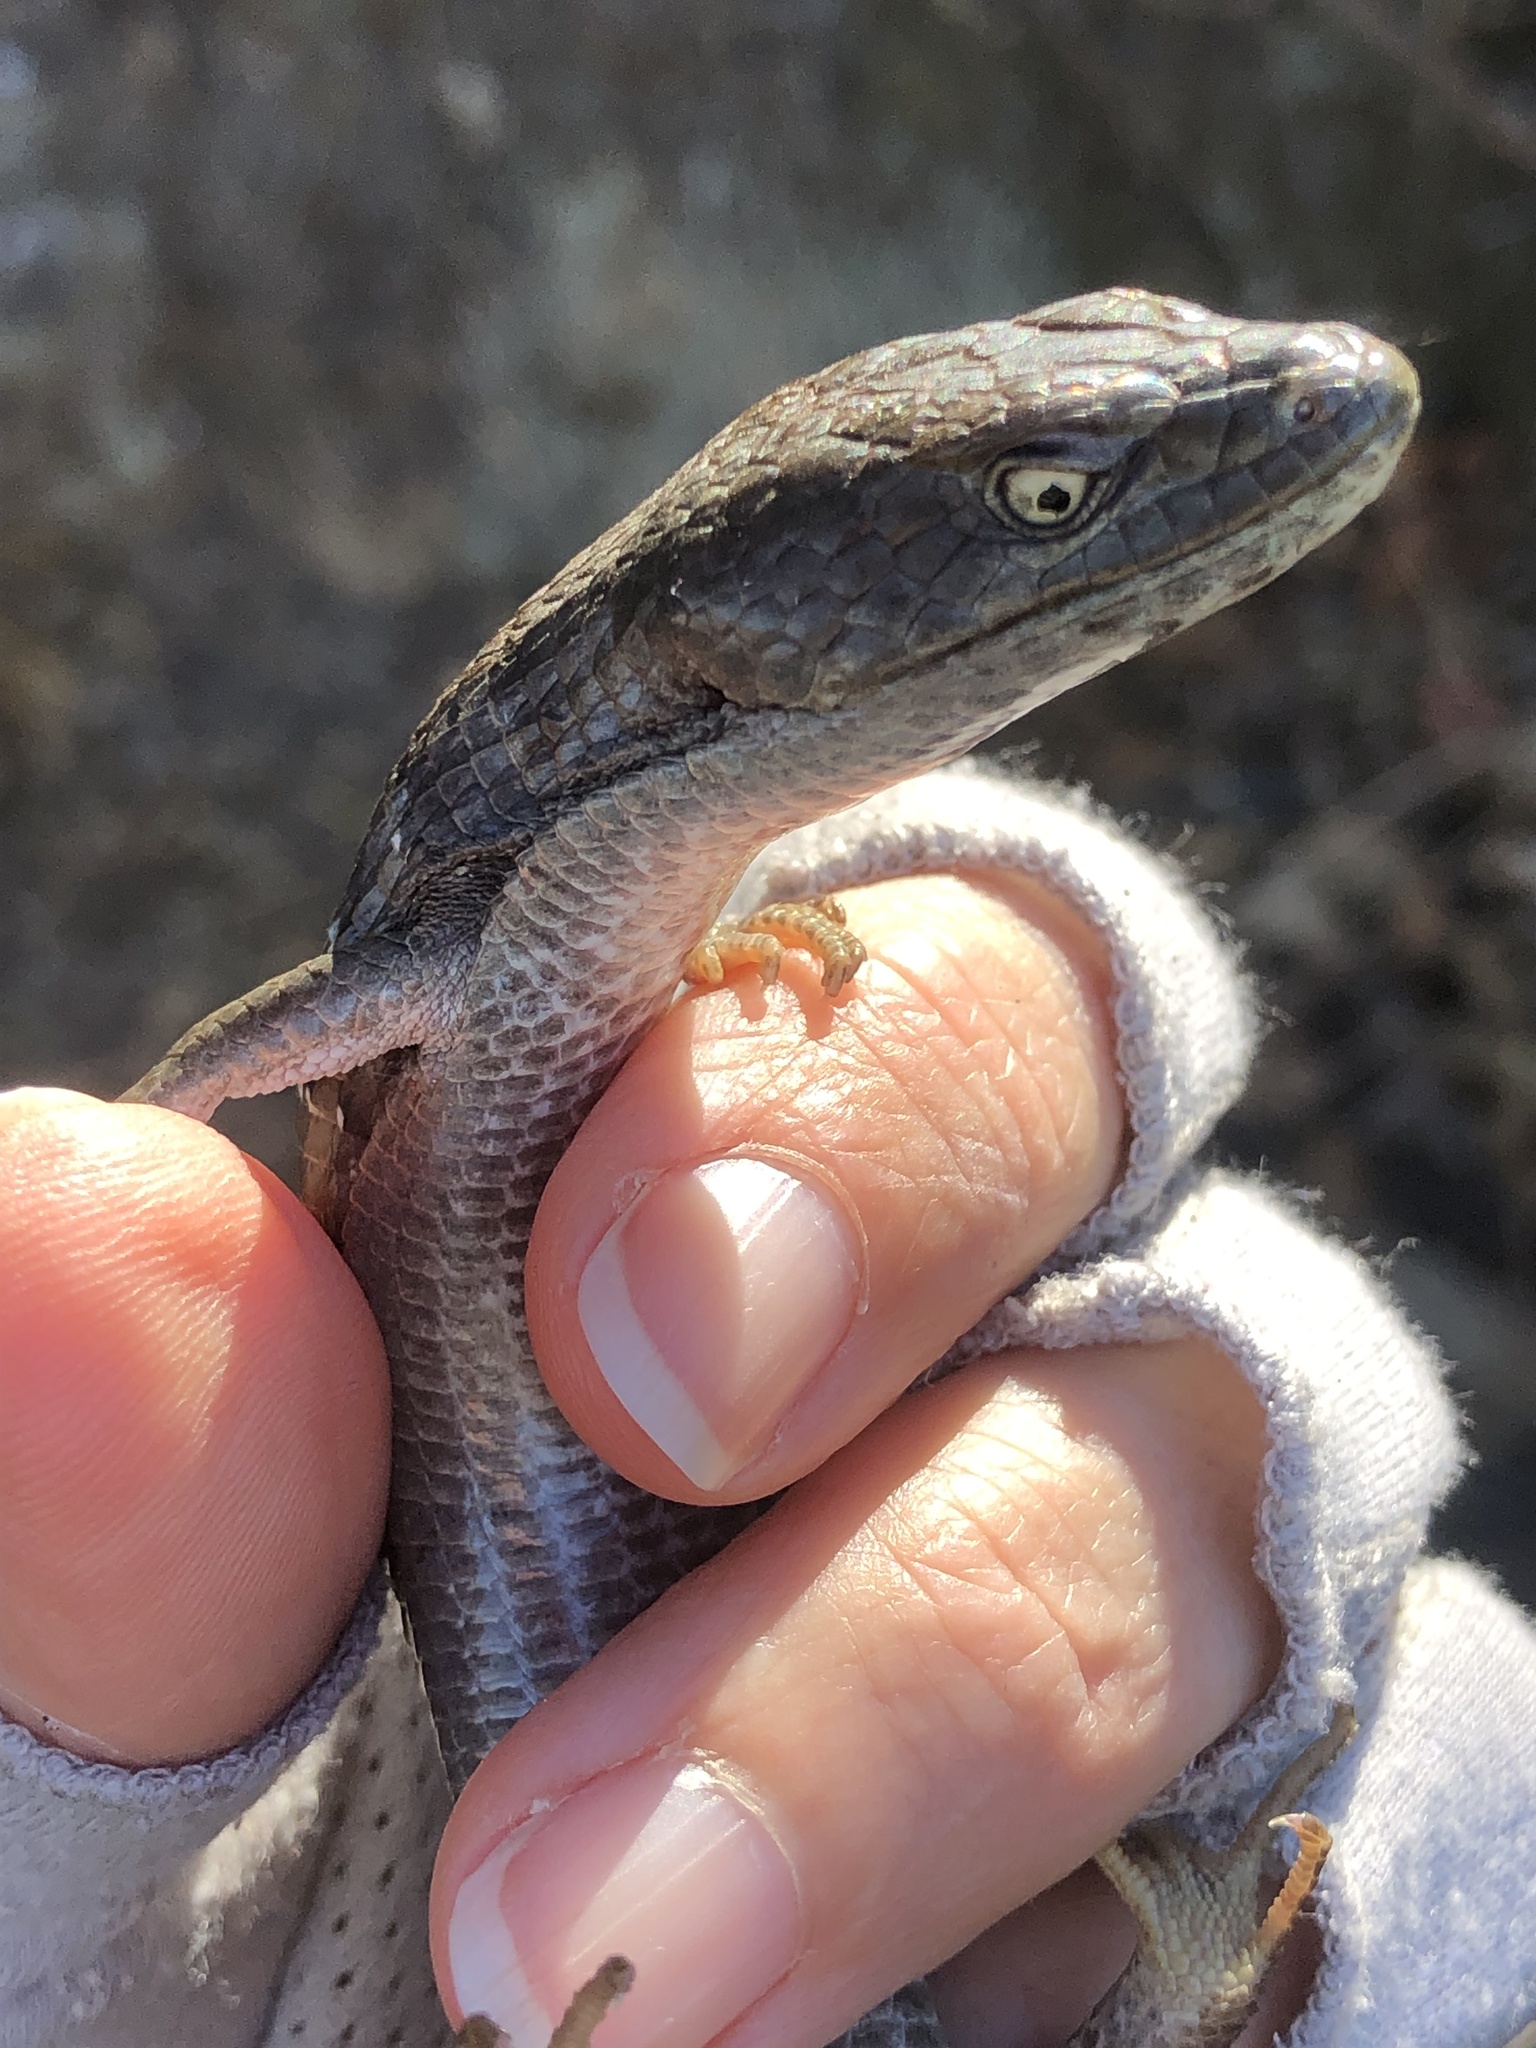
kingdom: Animalia
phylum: Chordata
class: Squamata
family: Anguidae
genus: Elgaria
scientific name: Elgaria multicarinata
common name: Southern alligator lizard
